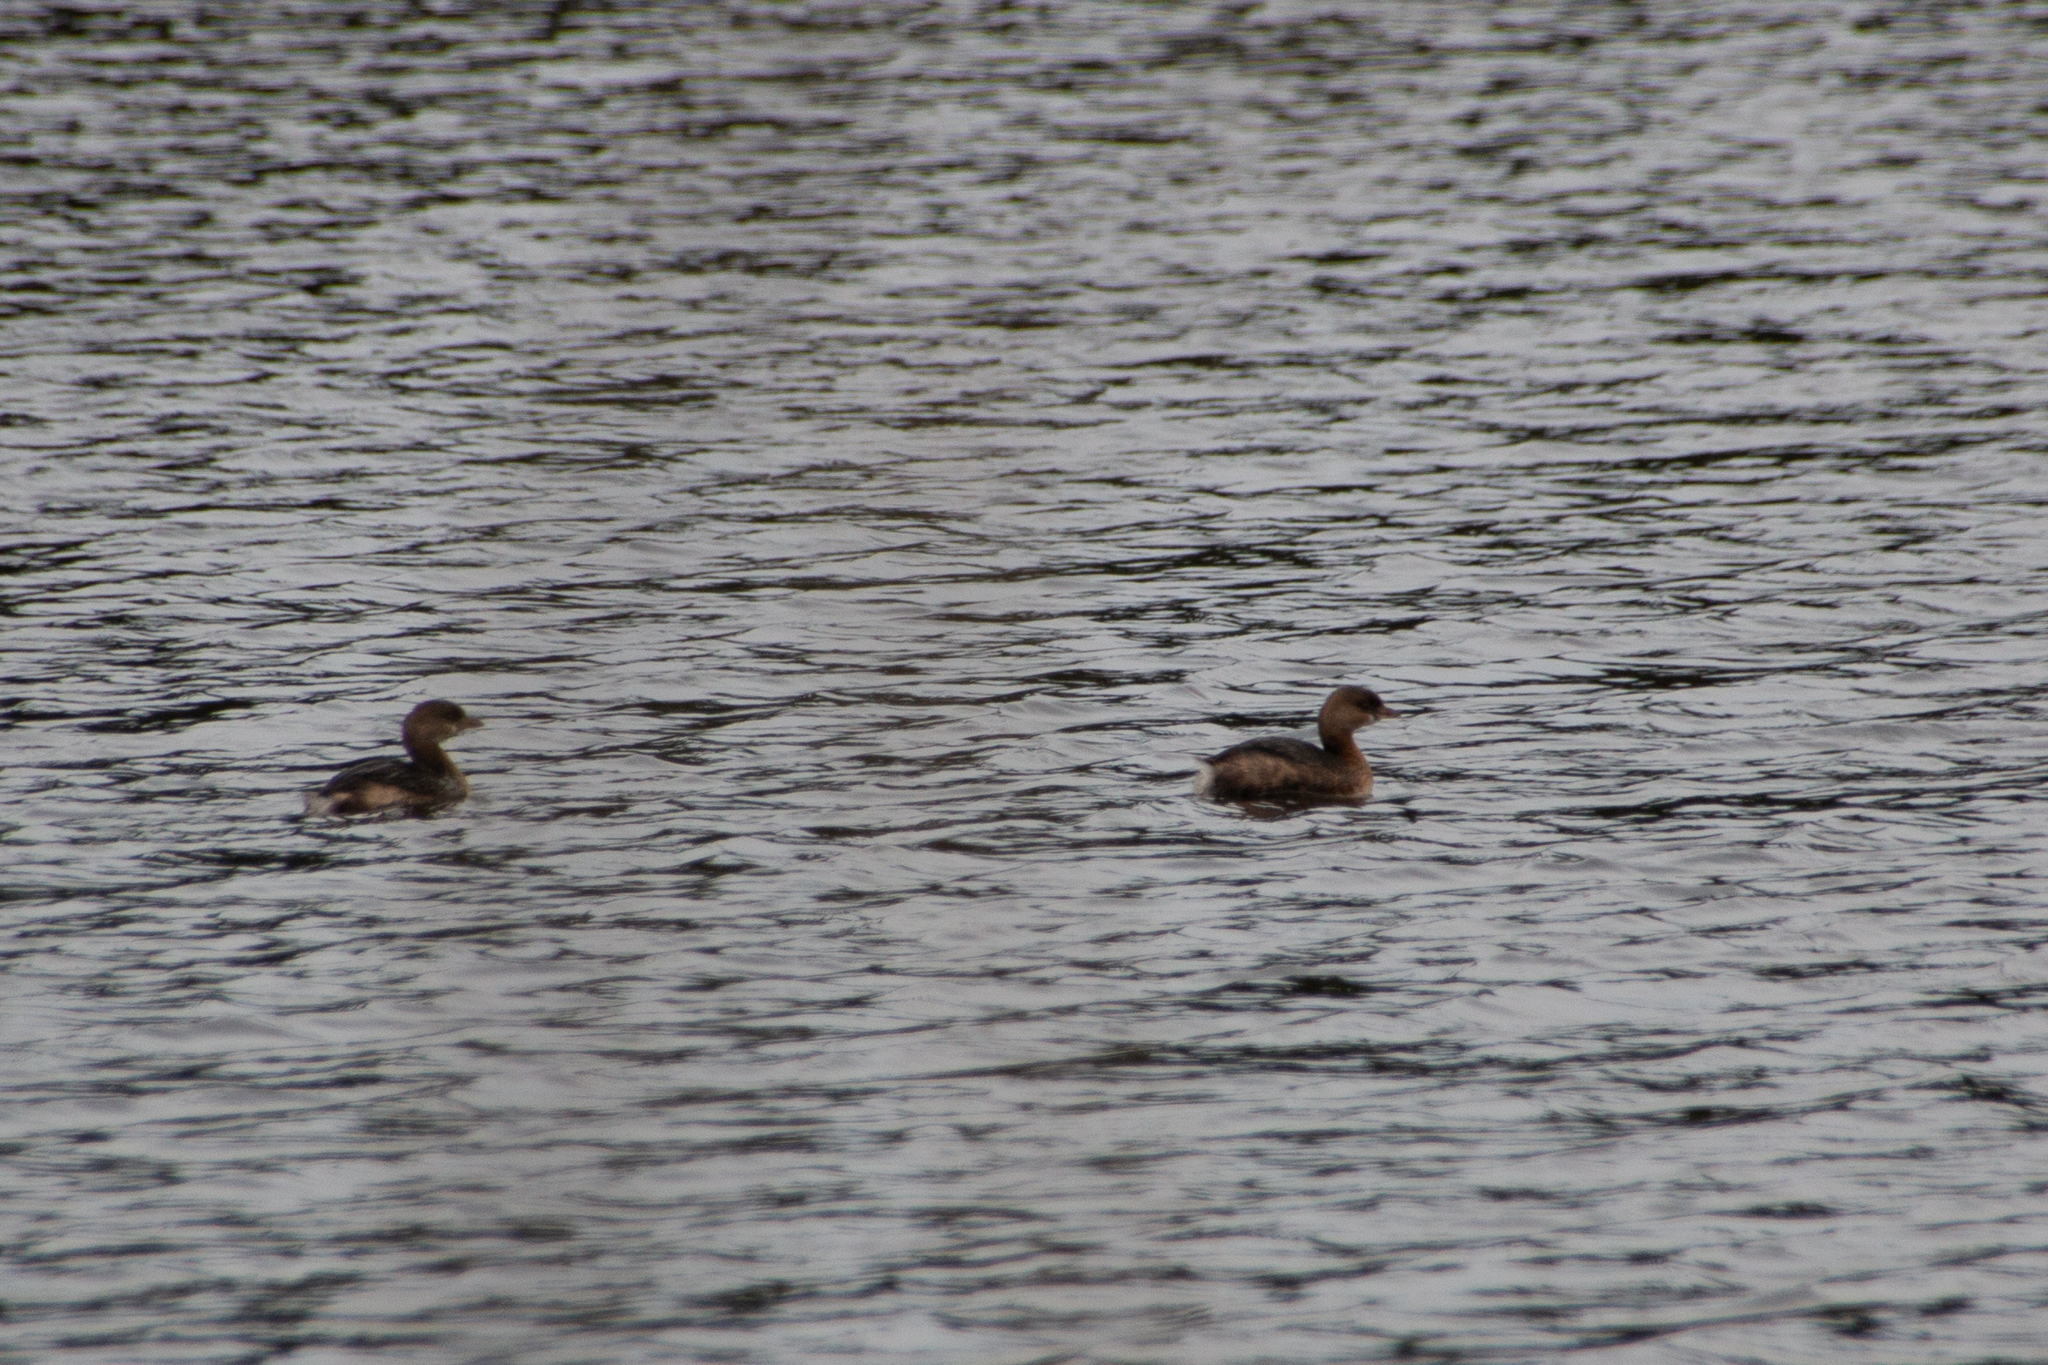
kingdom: Animalia
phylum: Chordata
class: Aves
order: Podicipediformes
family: Podicipedidae
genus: Podilymbus
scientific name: Podilymbus podiceps
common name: Pied-billed grebe
